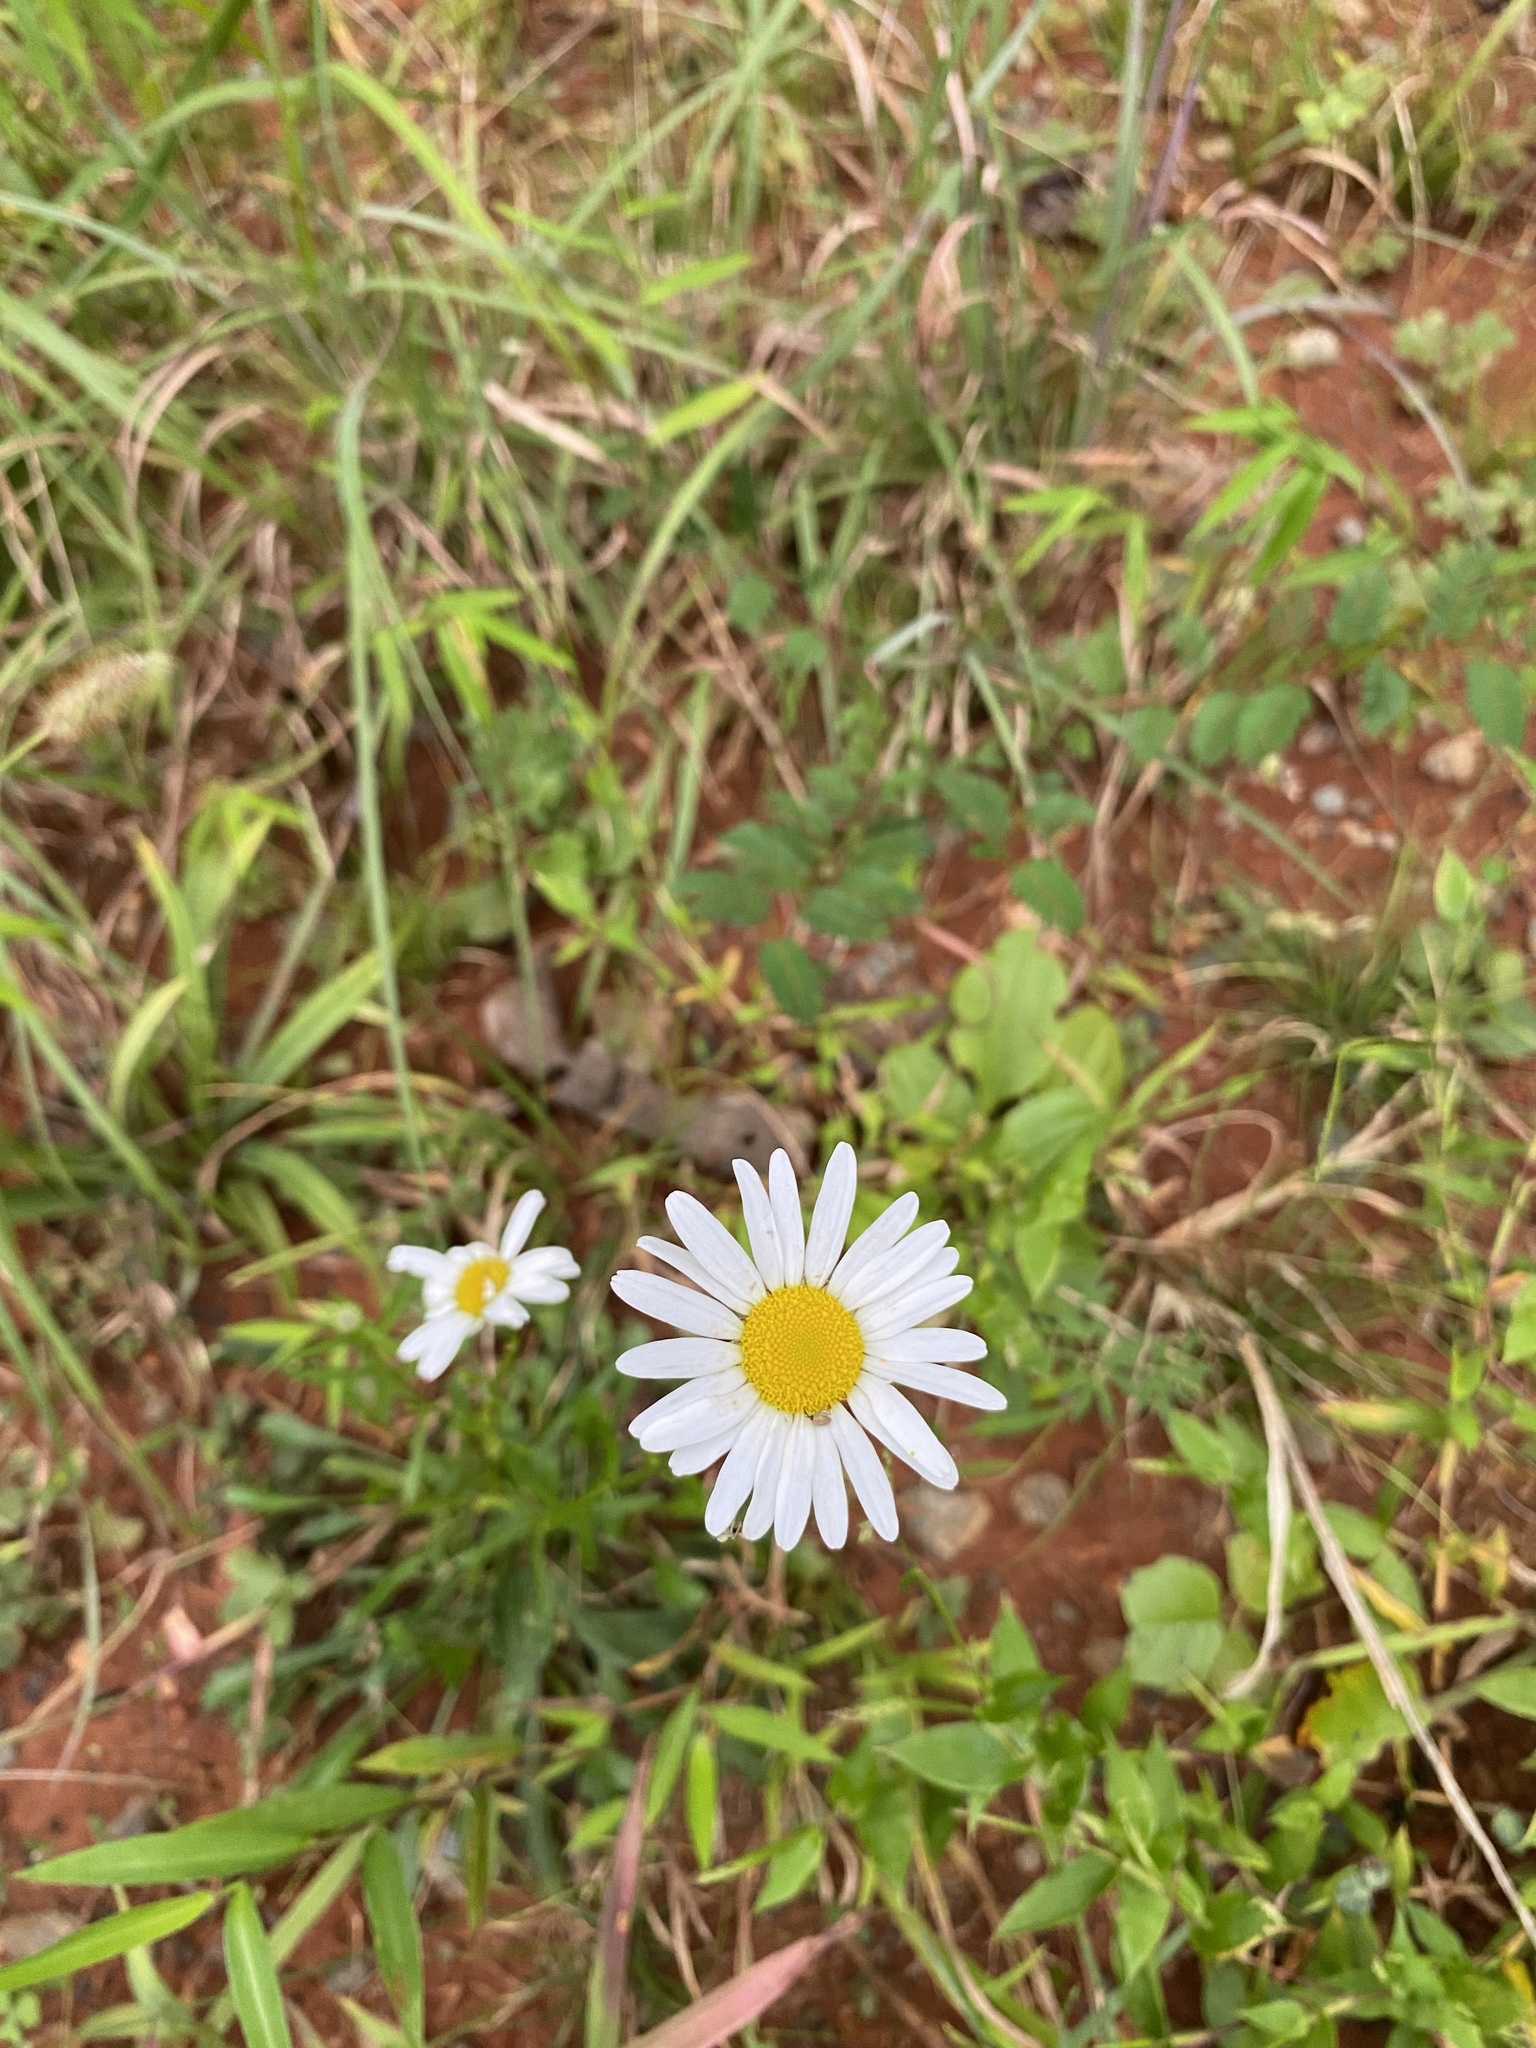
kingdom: Plantae
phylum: Tracheophyta
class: Magnoliopsida
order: Asterales
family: Asteraceae
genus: Leucanthemum
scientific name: Leucanthemum vulgare
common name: Oxeye daisy
